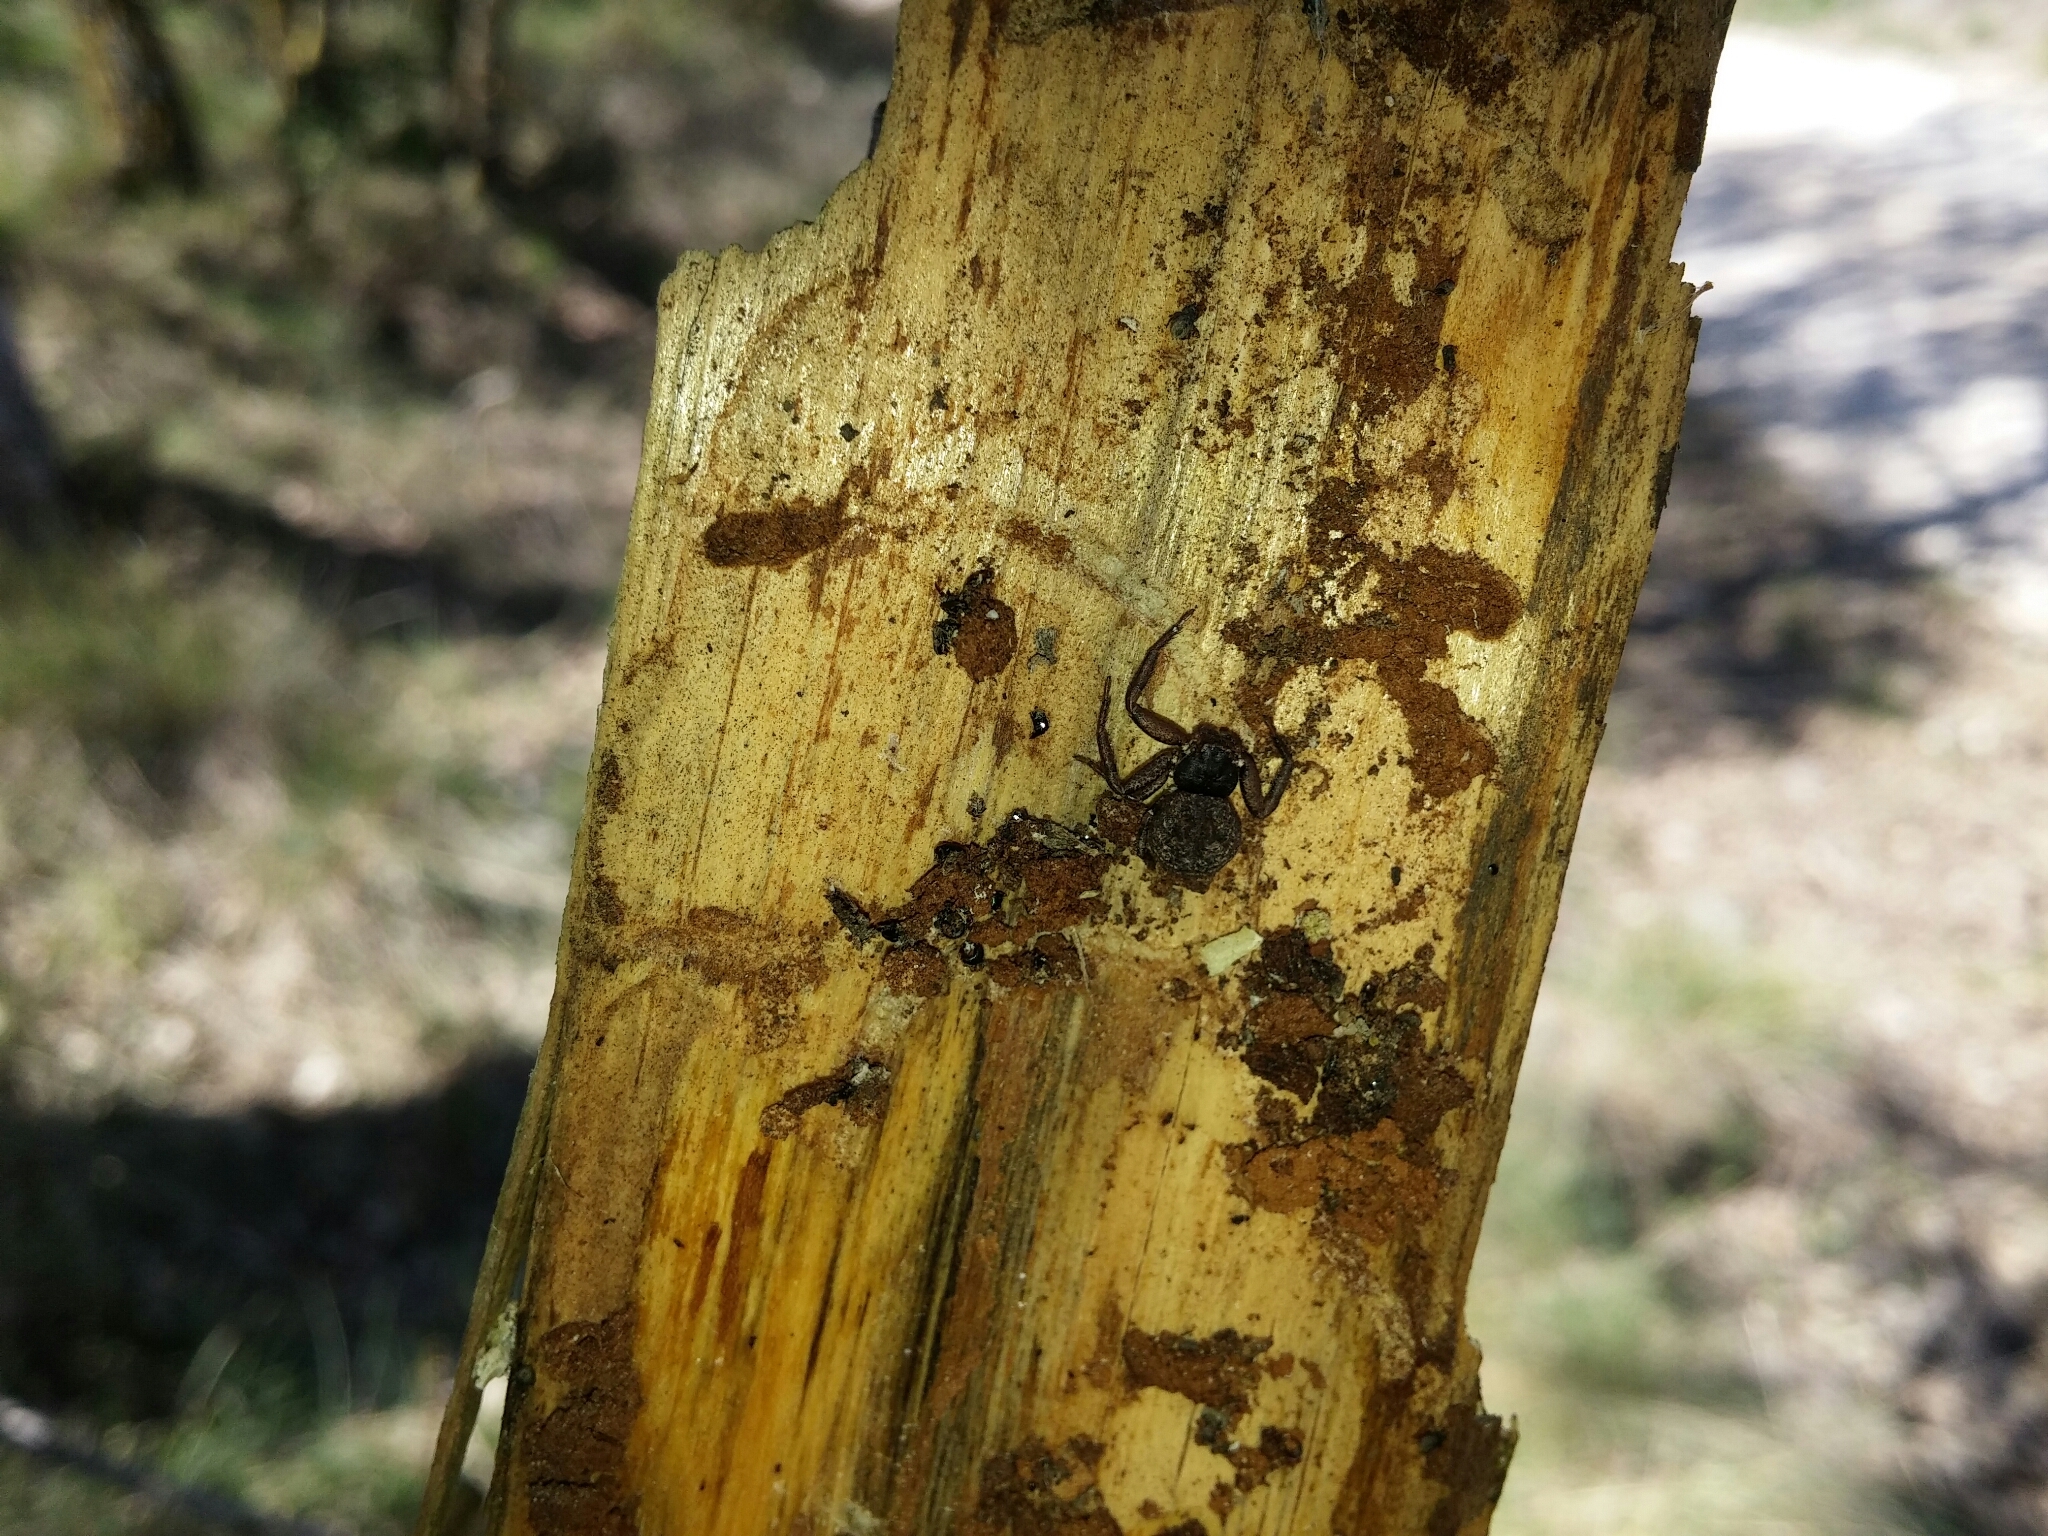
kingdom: Animalia
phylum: Arthropoda
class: Arachnida
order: Araneae
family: Thomisidae
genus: Coriarachne
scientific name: Coriarachne depressa
